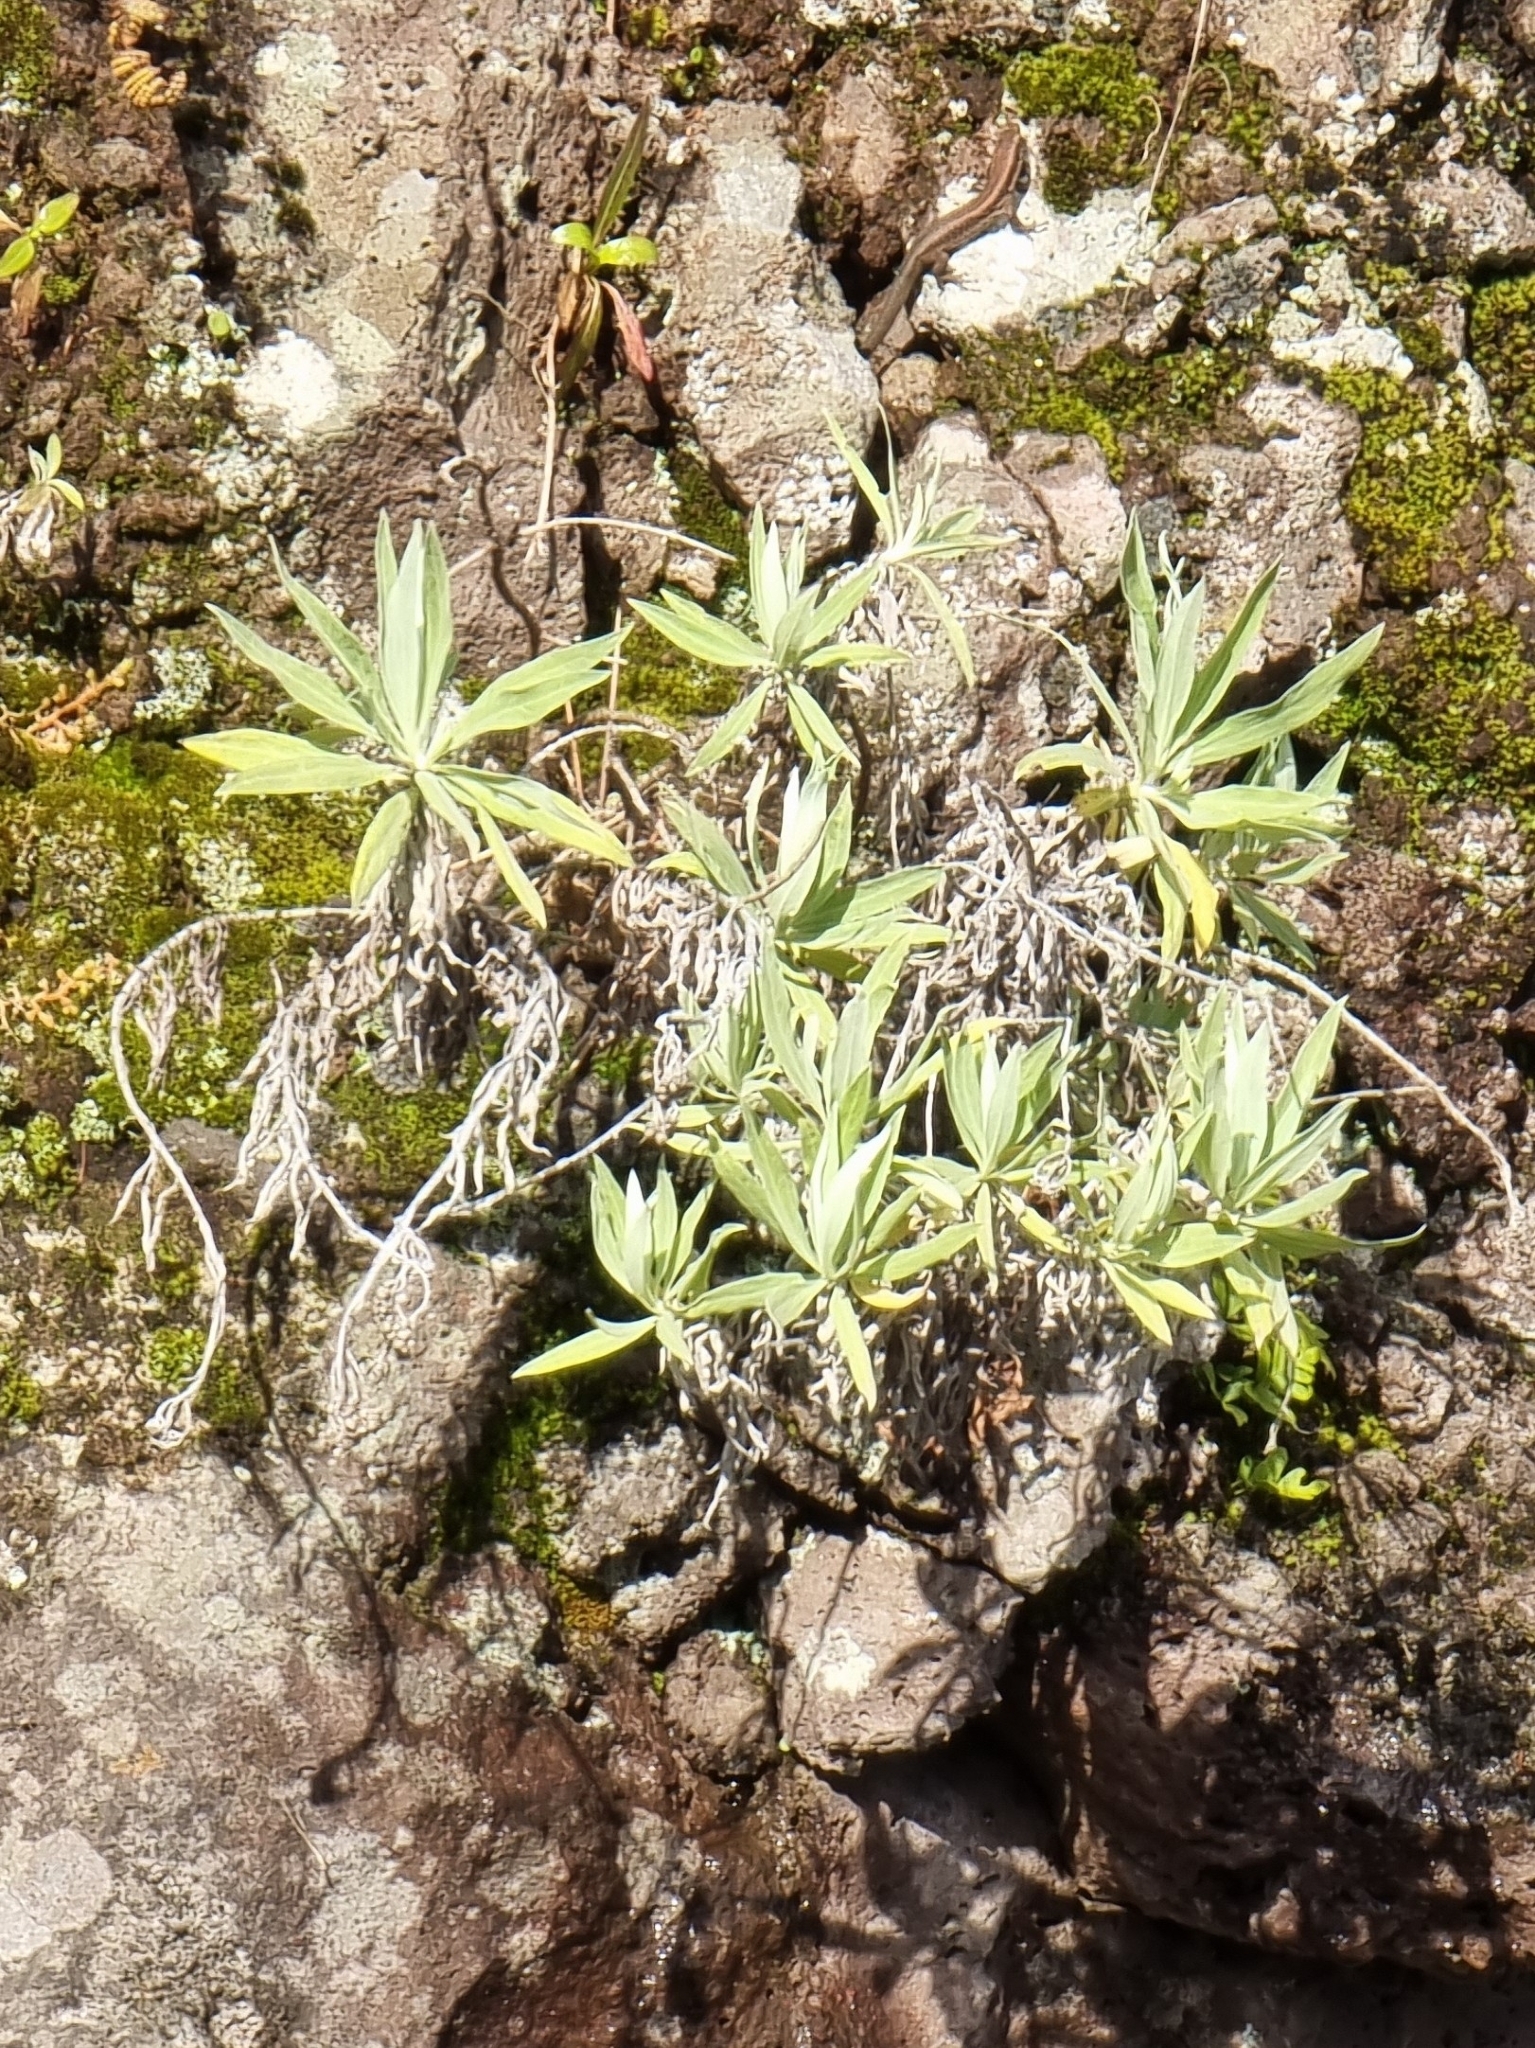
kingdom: Plantae
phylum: Tracheophyta
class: Magnoliopsida
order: Asterales
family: Asteraceae
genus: Helichrysum
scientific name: Helichrysum melaleucum
